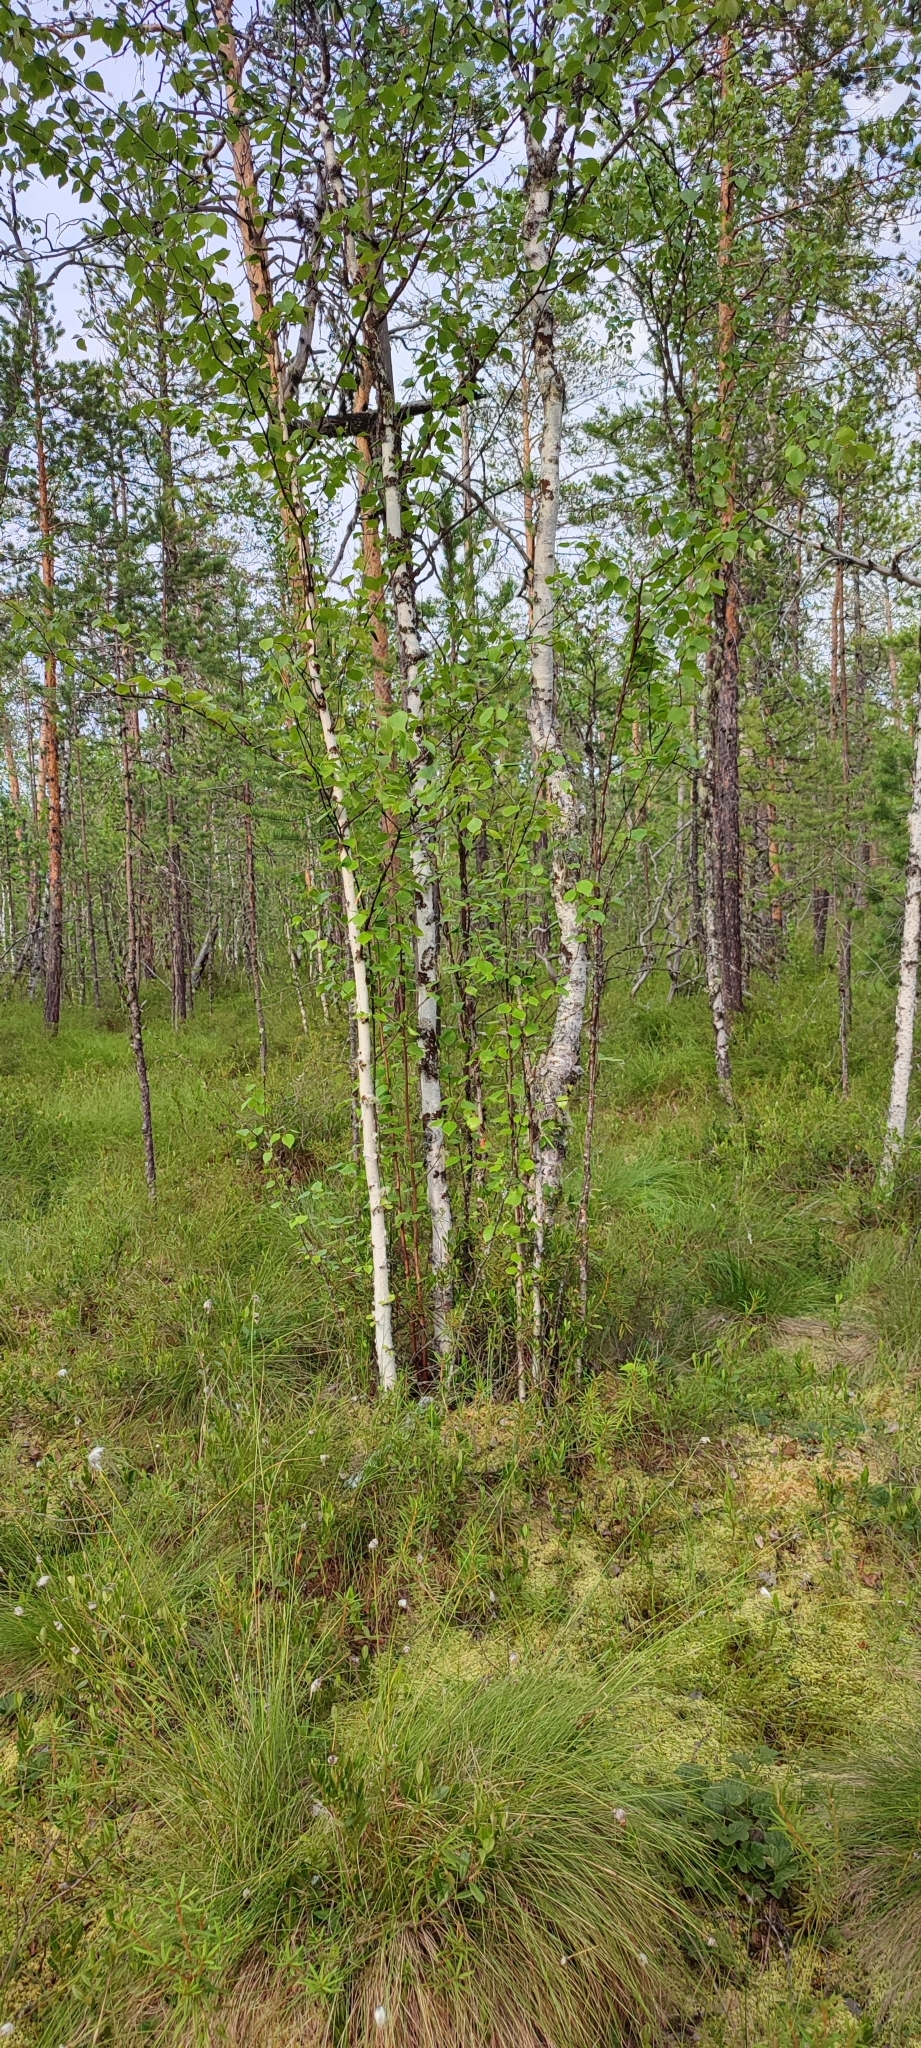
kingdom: Plantae
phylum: Tracheophyta
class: Magnoliopsida
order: Fagales
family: Betulaceae
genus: Betula
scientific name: Betula pubescens
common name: Downy birch
